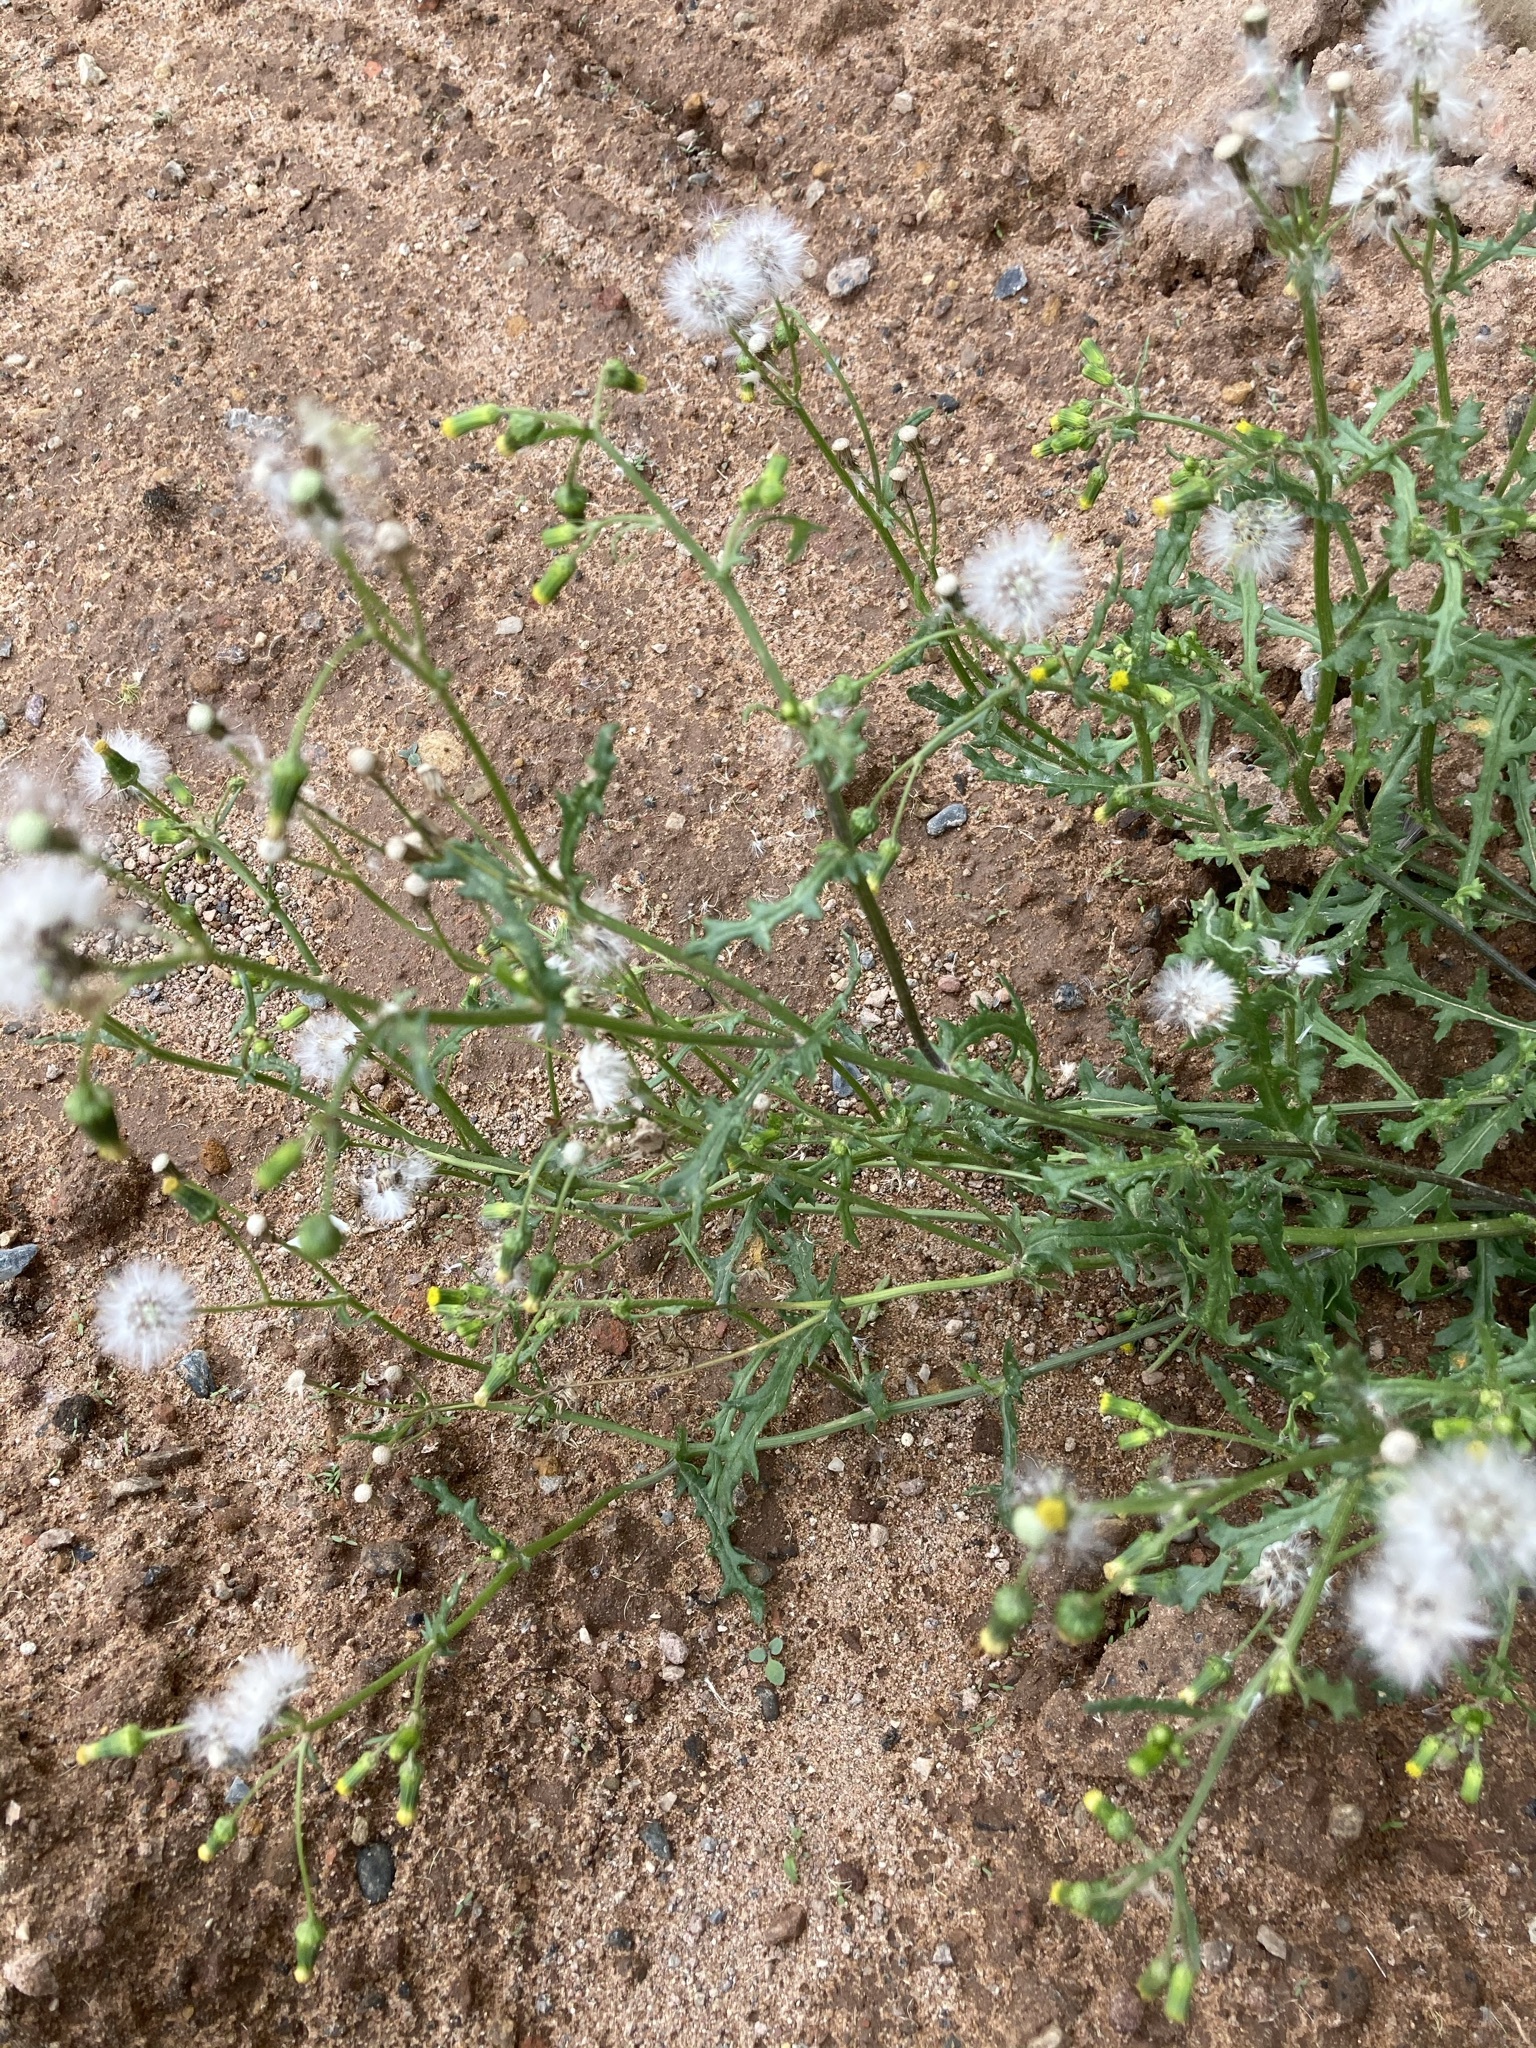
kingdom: Plantae
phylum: Tracheophyta
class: Magnoliopsida
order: Asterales
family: Asteraceae
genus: Senecio
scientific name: Senecio vulgaris
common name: Old-man-in-the-spring
